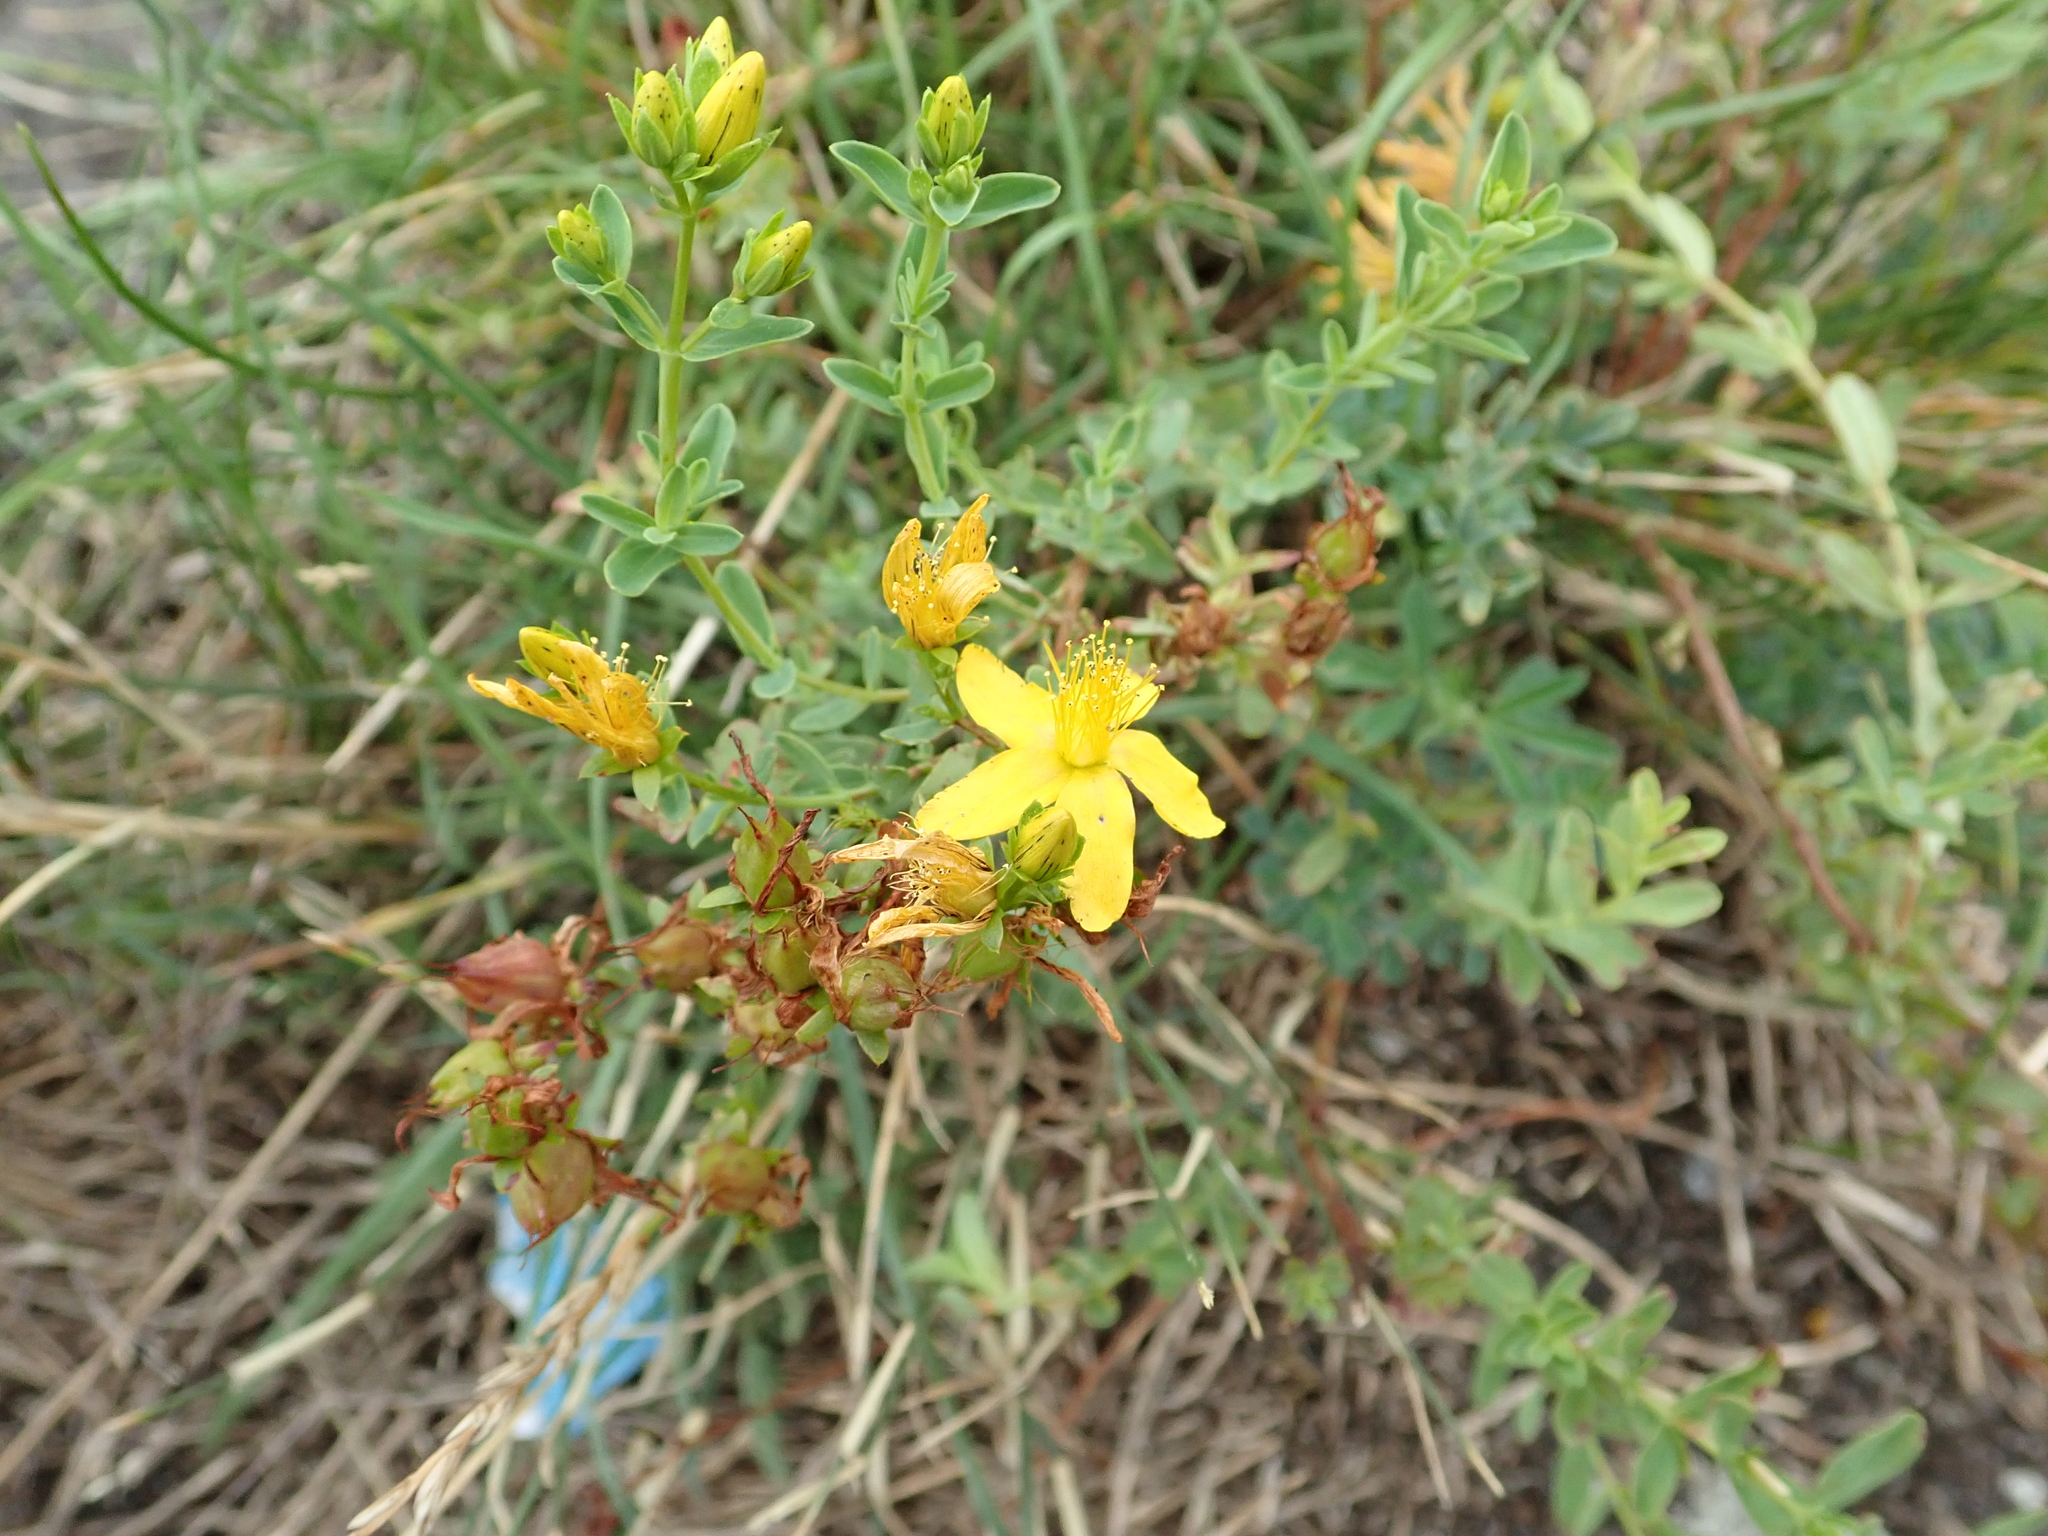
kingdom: Plantae
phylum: Tracheophyta
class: Magnoliopsida
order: Malpighiales
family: Hypericaceae
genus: Hypericum
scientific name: Hypericum perforatum
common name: Common st. johnswort
